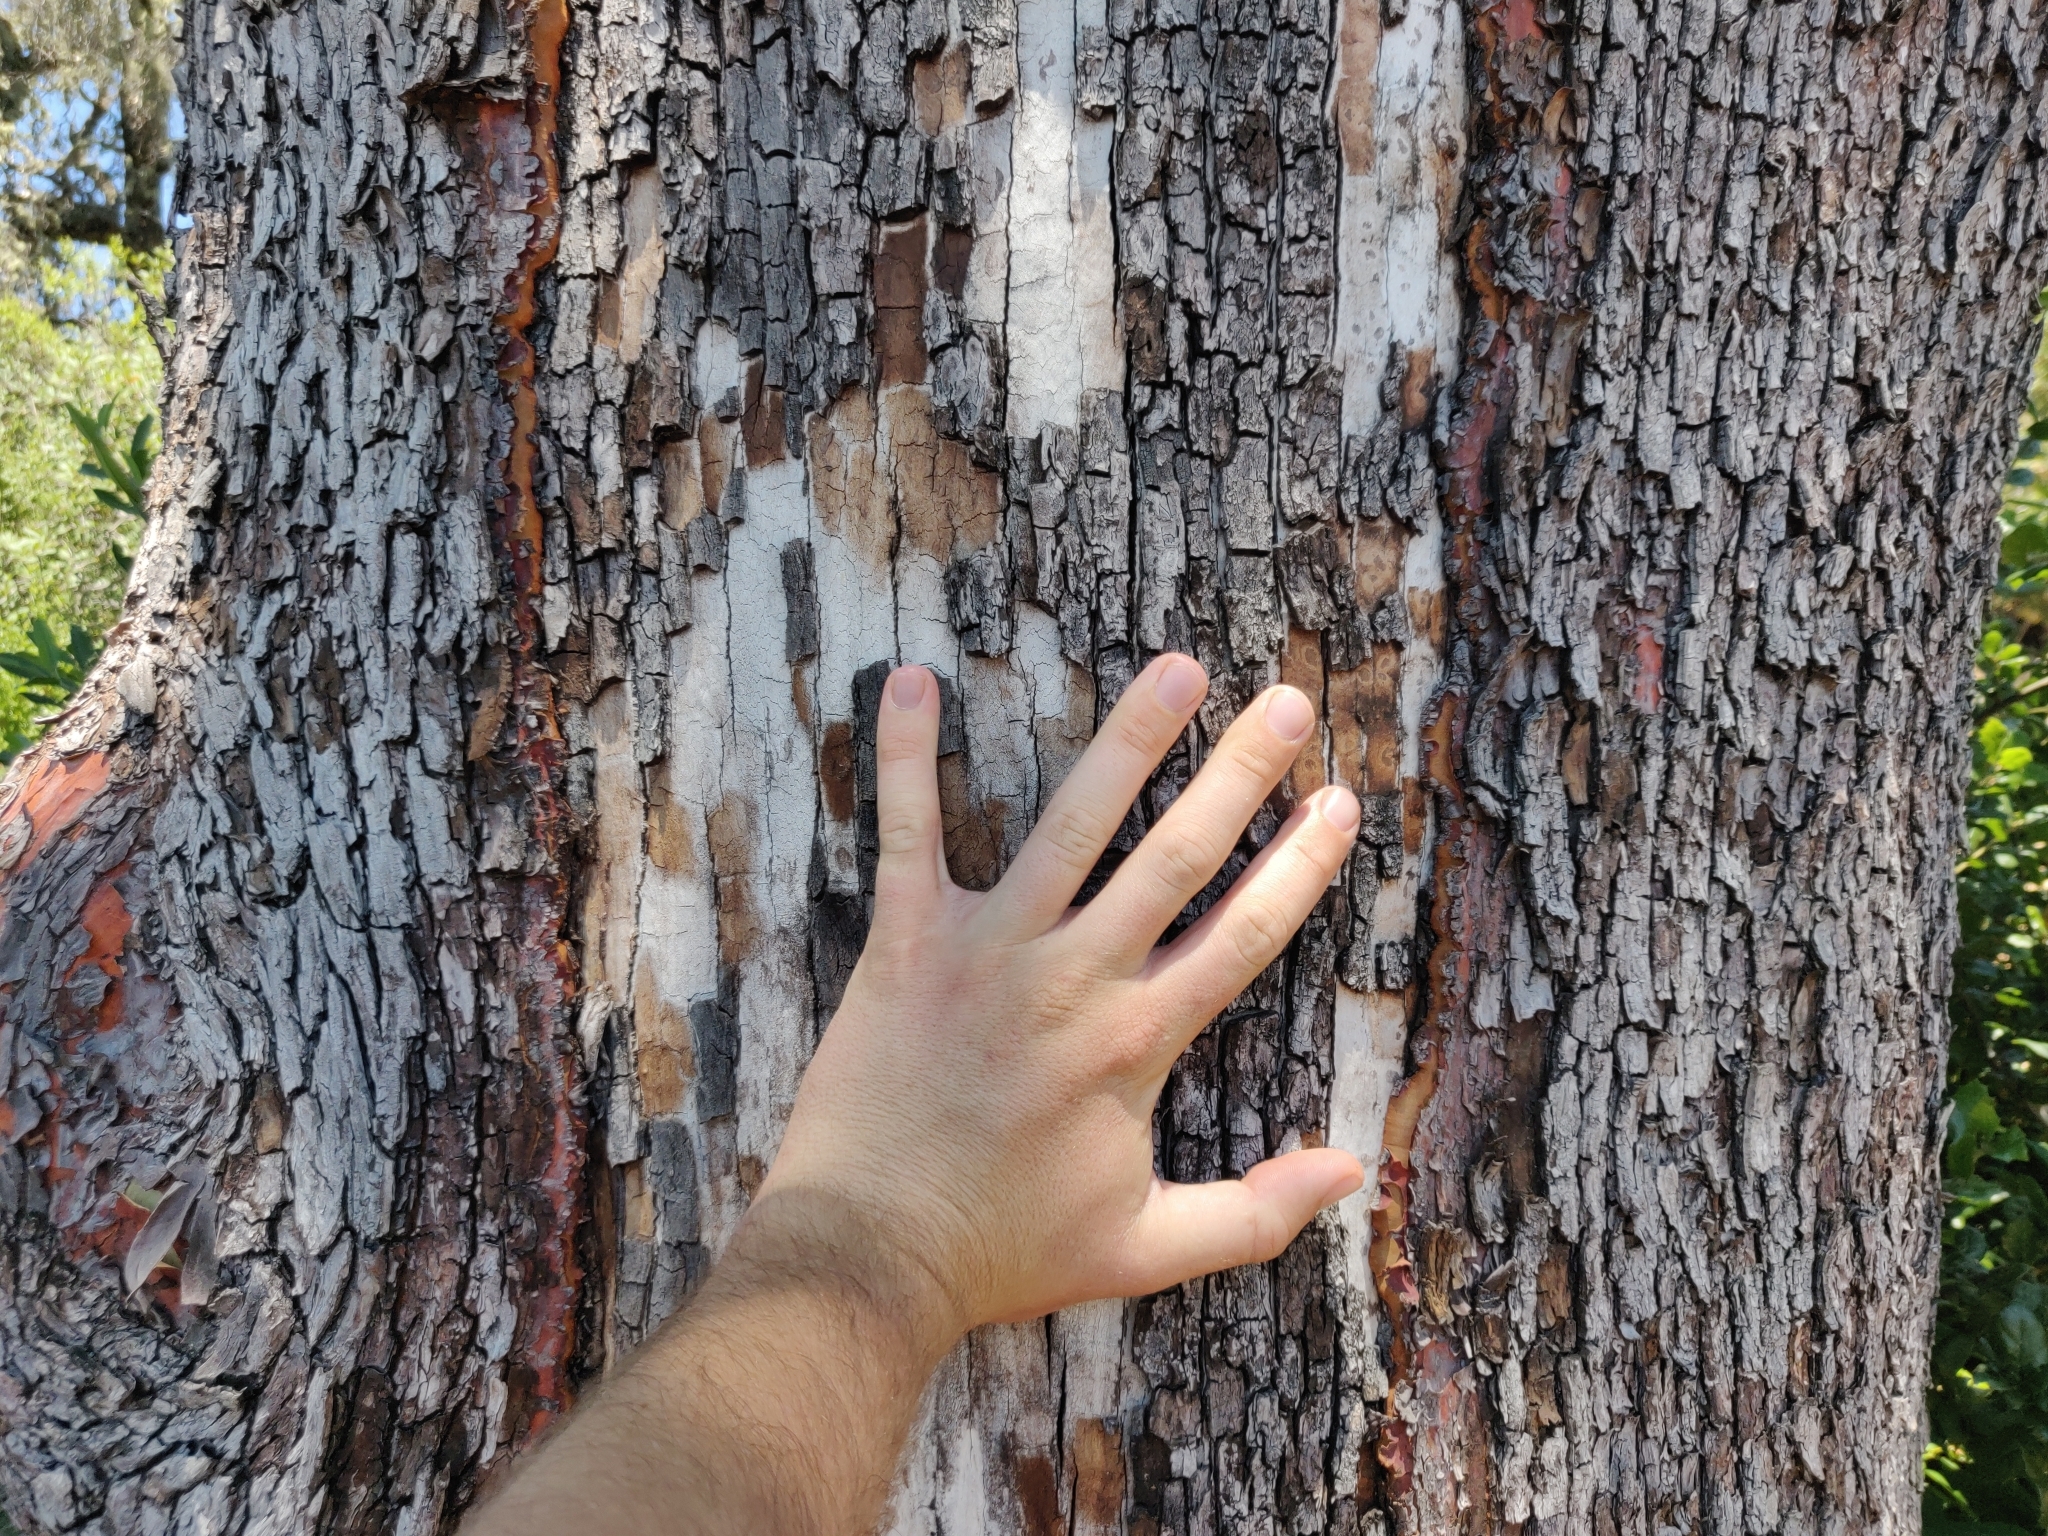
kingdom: Plantae
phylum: Tracheophyta
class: Magnoliopsida
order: Ericales
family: Ericaceae
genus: Arbutus
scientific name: Arbutus menziesii
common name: Pacific madrone
